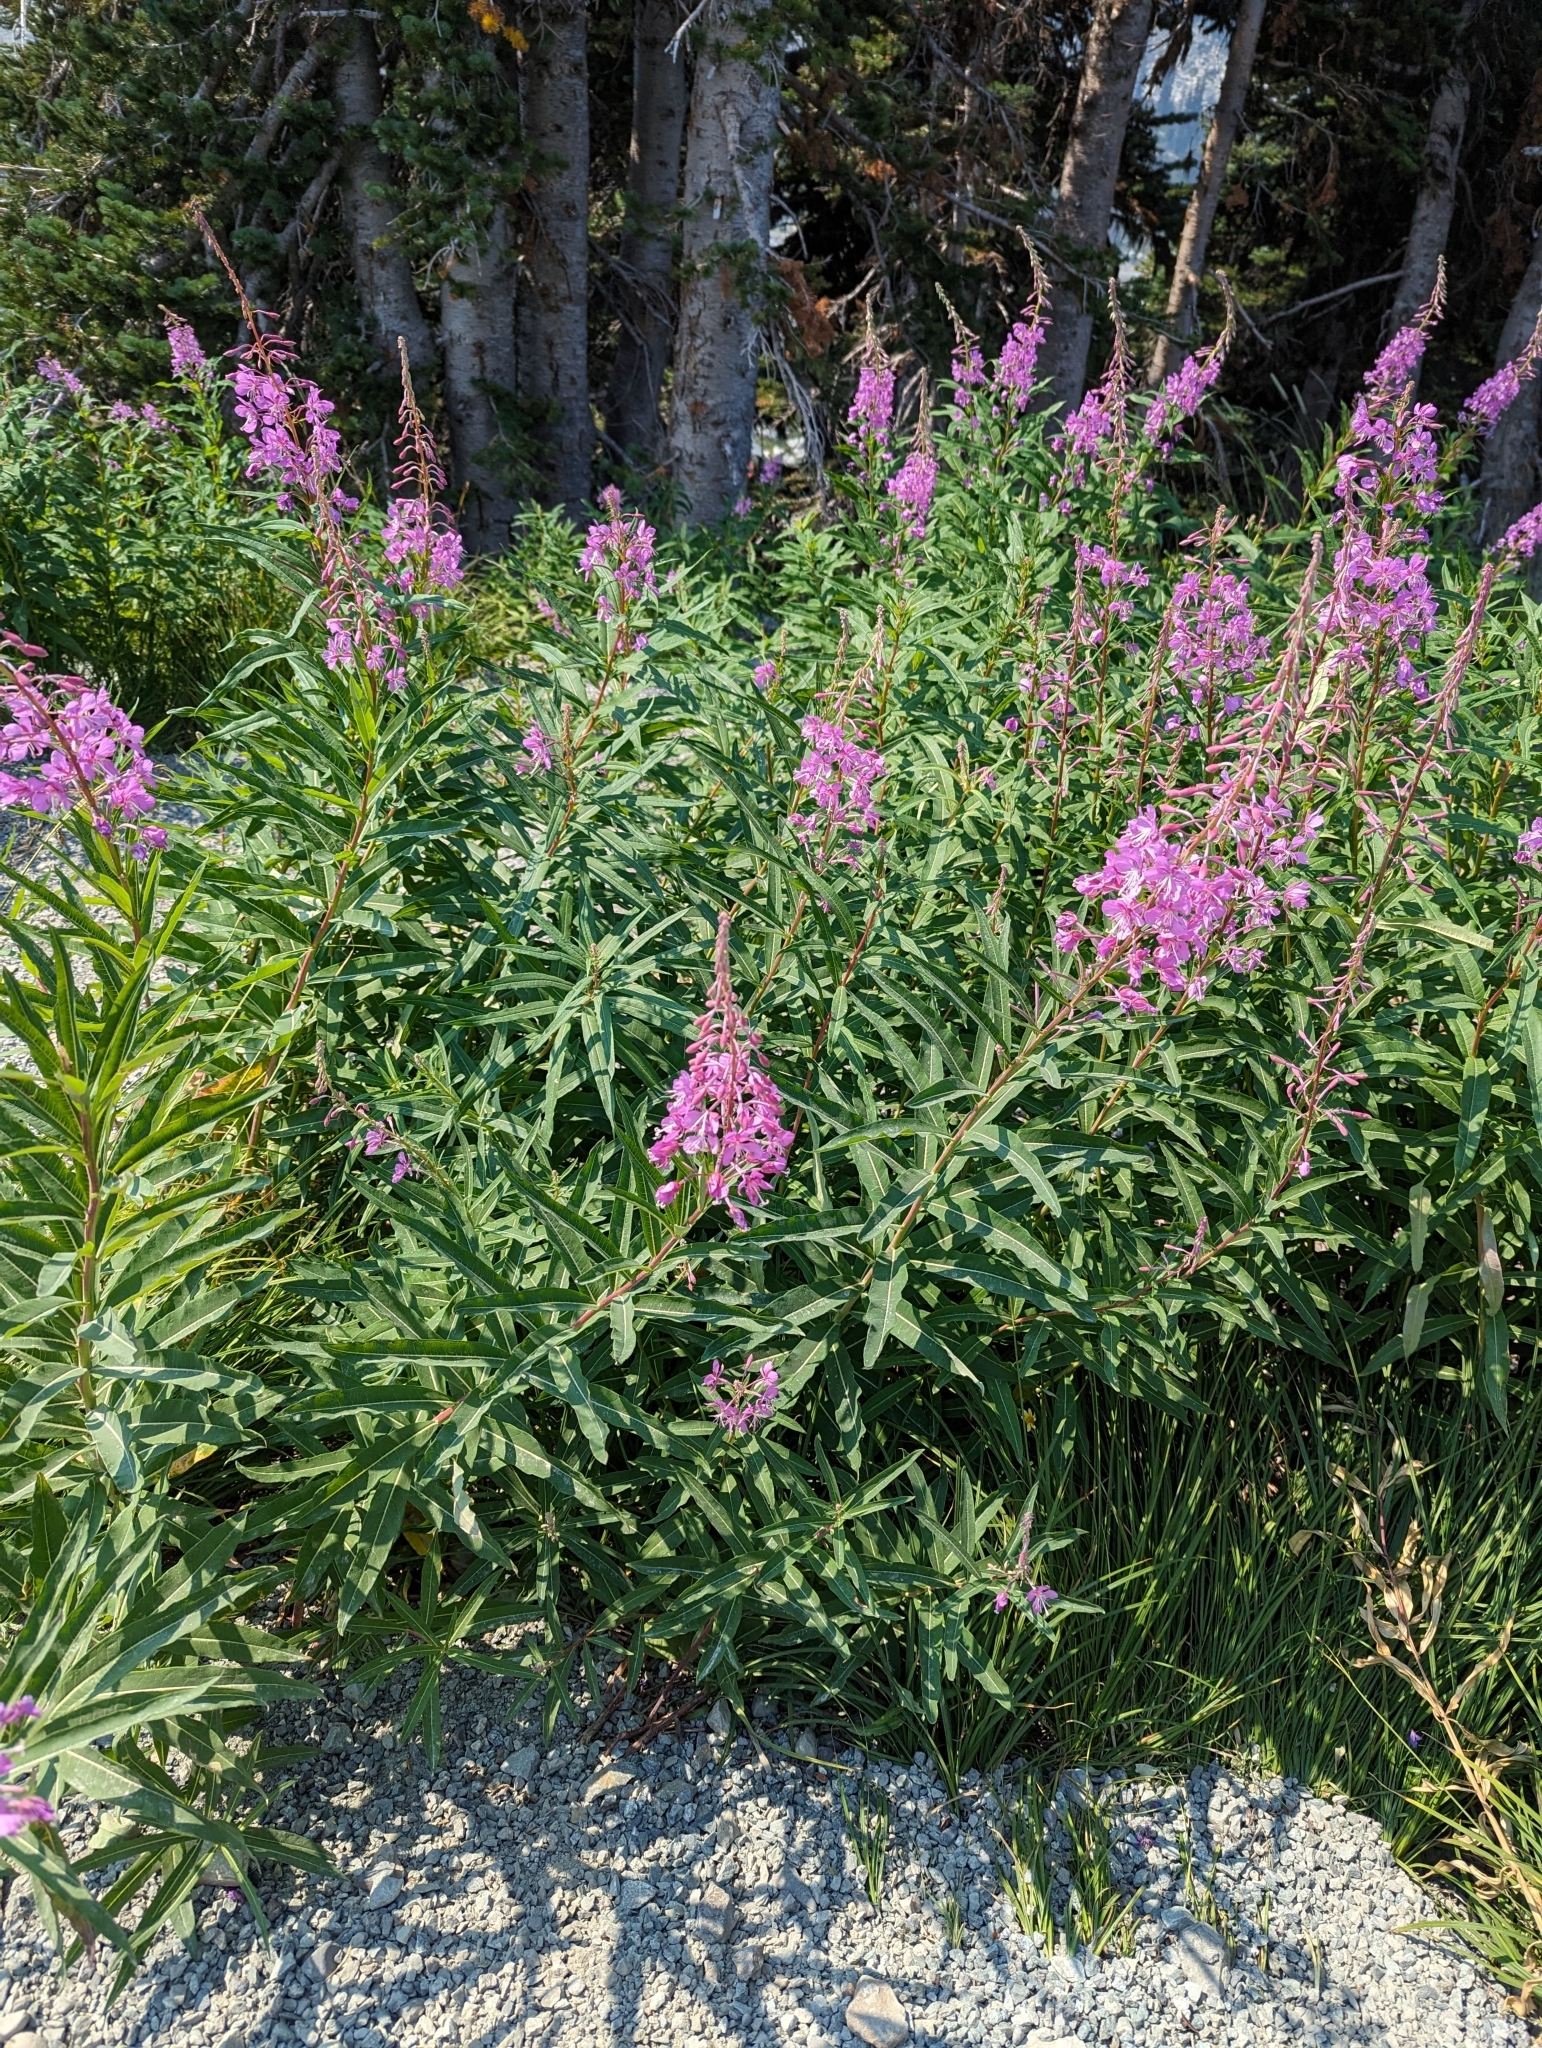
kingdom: Plantae
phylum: Tracheophyta
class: Magnoliopsida
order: Myrtales
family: Onagraceae
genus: Chamaenerion
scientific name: Chamaenerion angustifolium
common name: Fireweed
